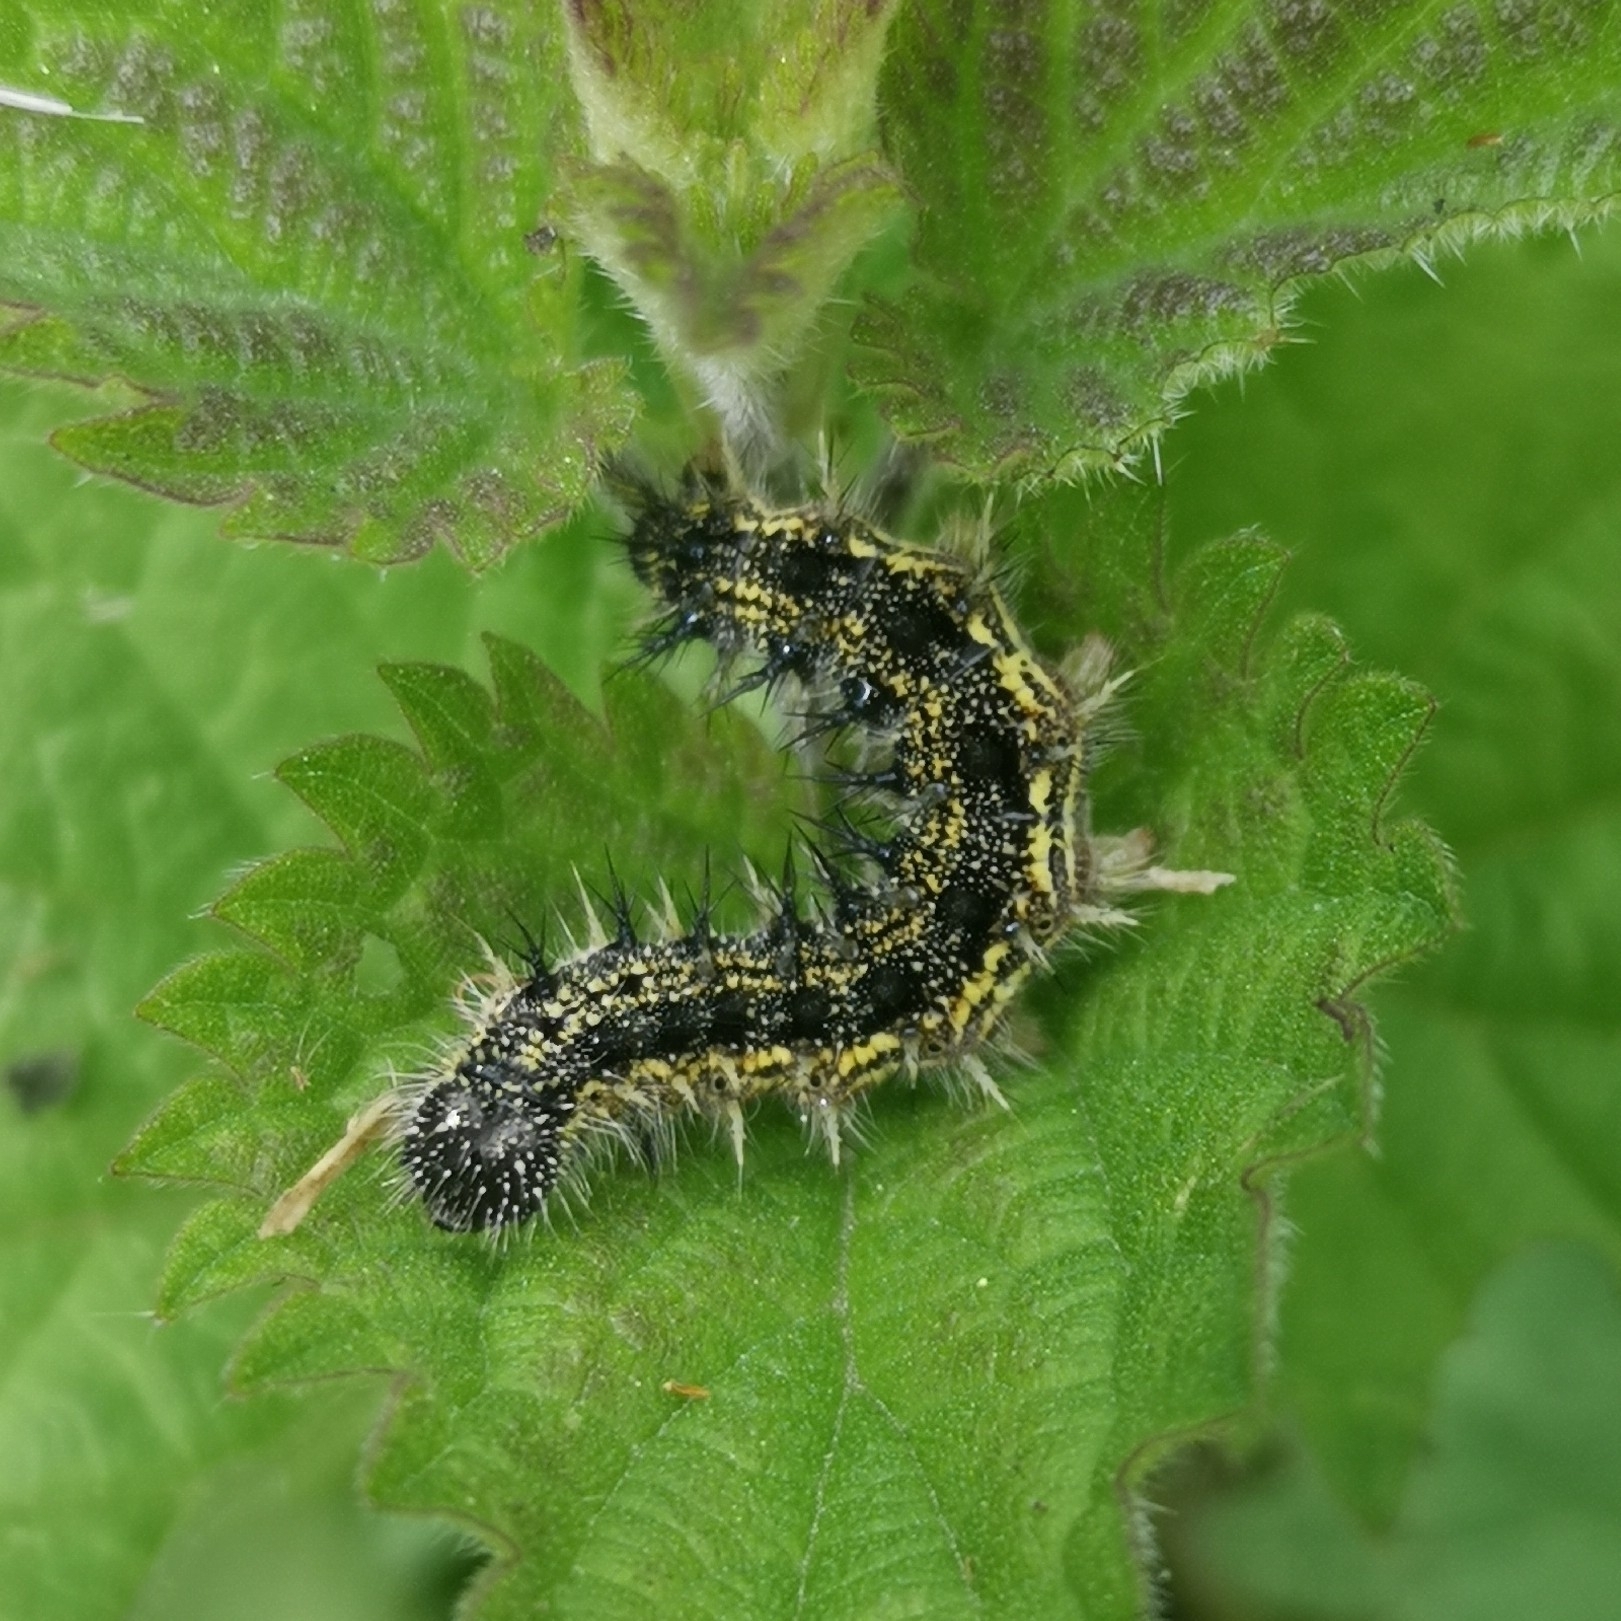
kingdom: Animalia
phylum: Arthropoda
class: Insecta
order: Lepidoptera
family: Nymphalidae
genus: Aglais
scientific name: Aglais urticae
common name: Small tortoiseshell
